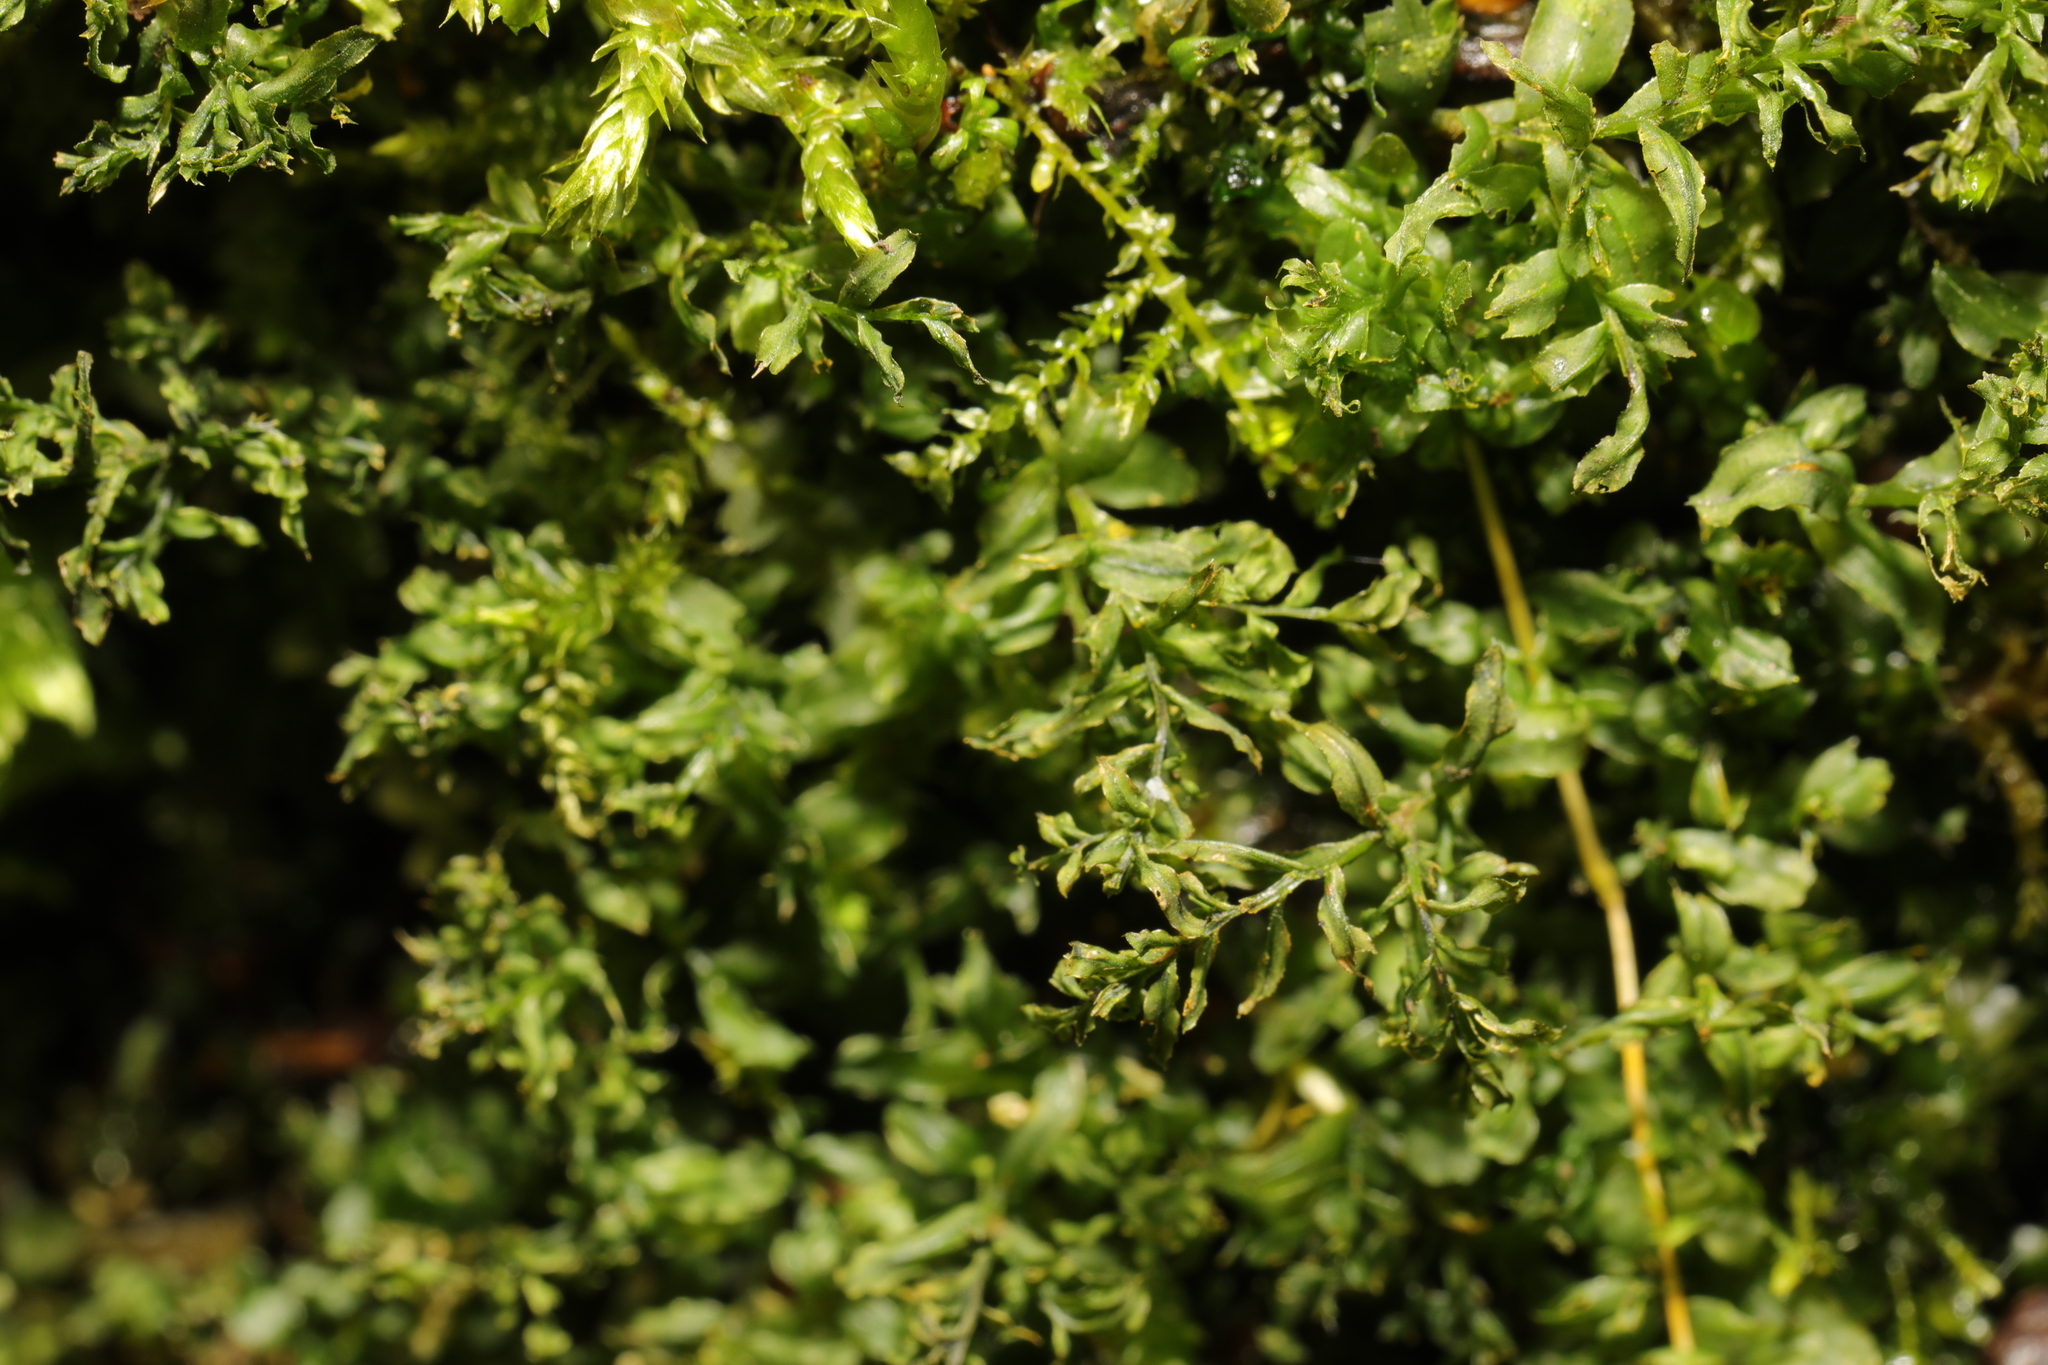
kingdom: Plantae
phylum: Bryophyta
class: Bryopsida
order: Bryales
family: Mniaceae
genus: Plagiomnium
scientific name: Plagiomnium undulatum
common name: Hart's-tongue thyme-moss
